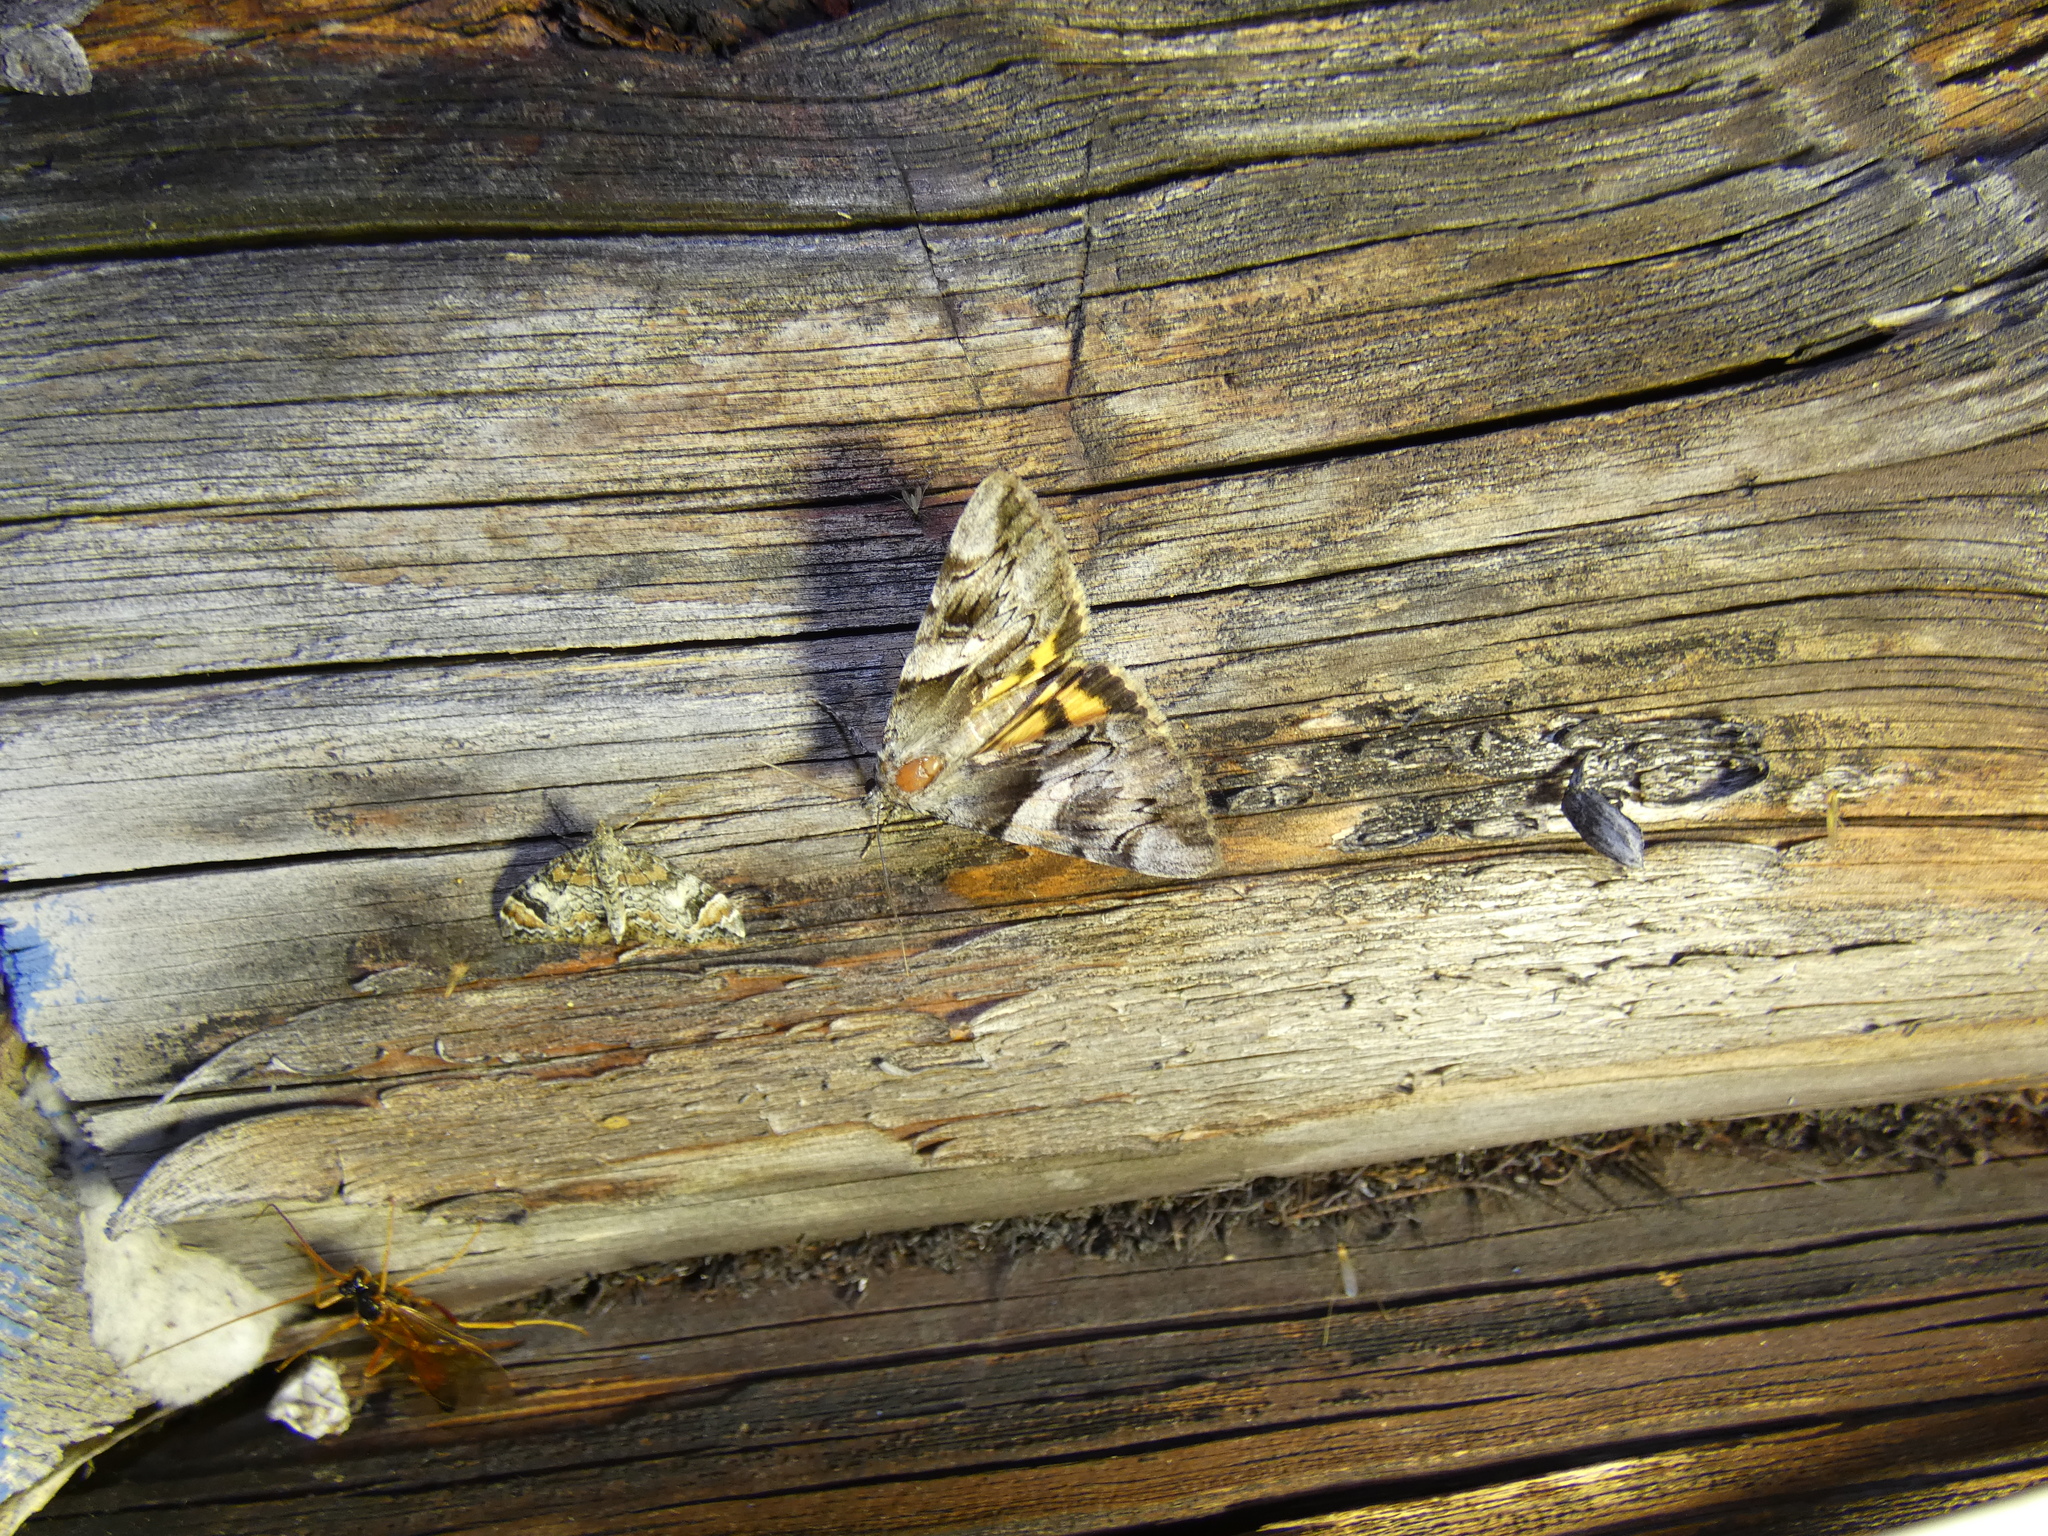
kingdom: Animalia
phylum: Arthropoda
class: Insecta
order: Lepidoptera
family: Erebidae
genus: Catocala
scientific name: Catocala fulminea
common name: Yellow bands underwing
